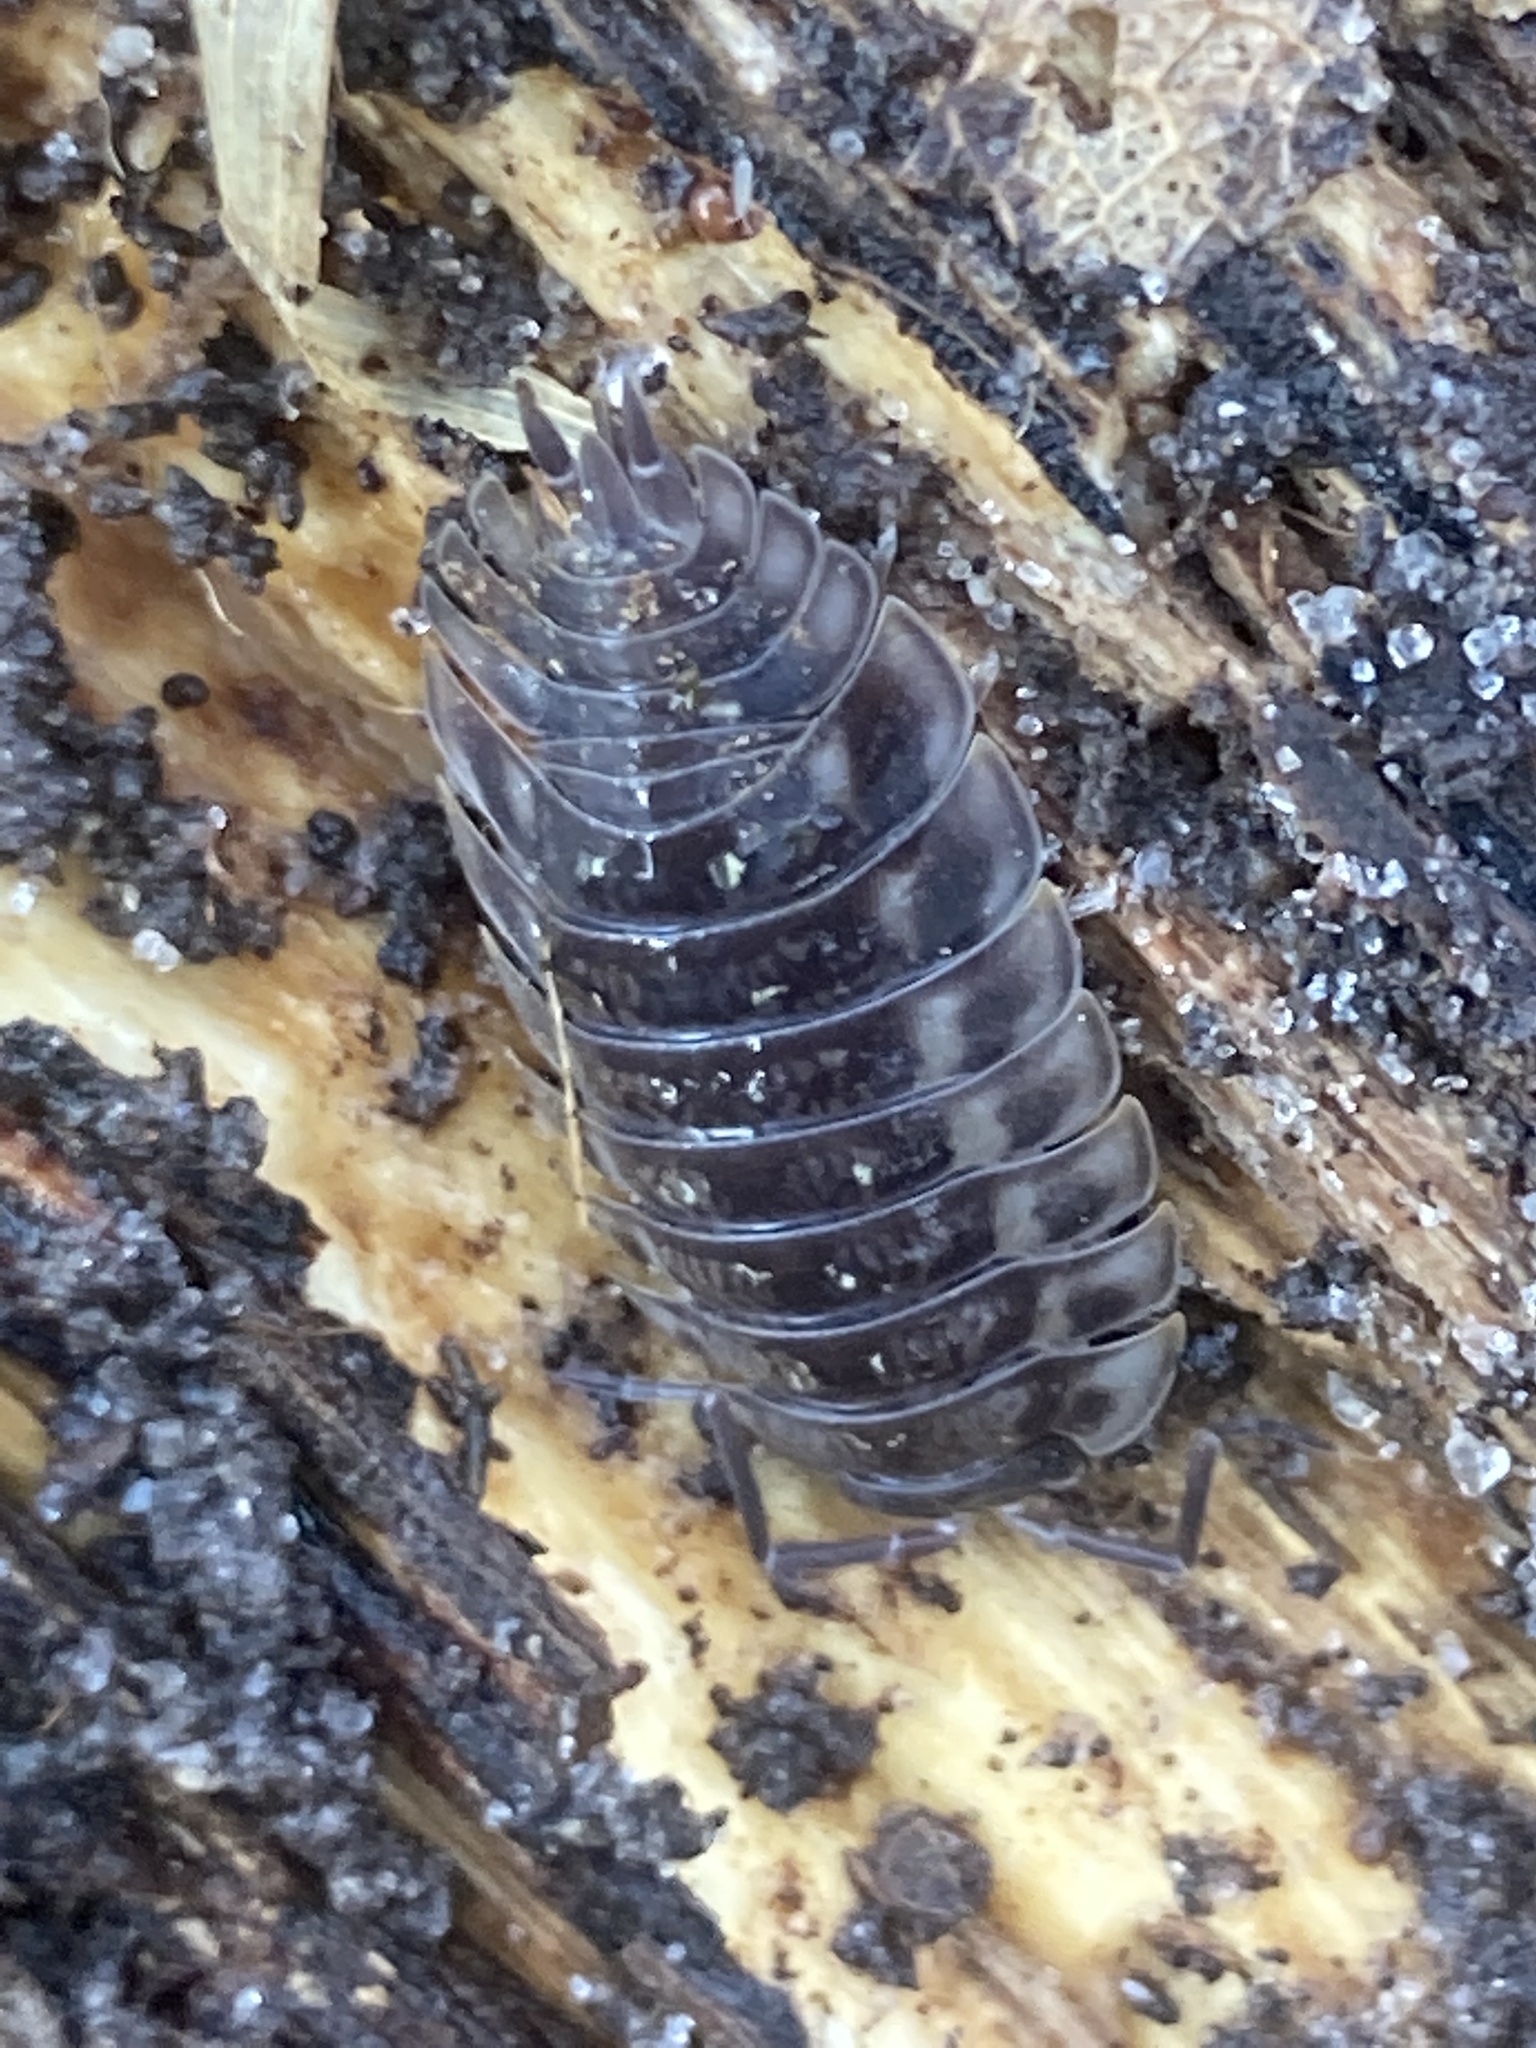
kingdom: Animalia
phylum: Arthropoda
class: Malacostraca
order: Isopoda
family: Oniscidae
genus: Oniscus
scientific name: Oniscus asellus
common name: Common shiny woodlouse
